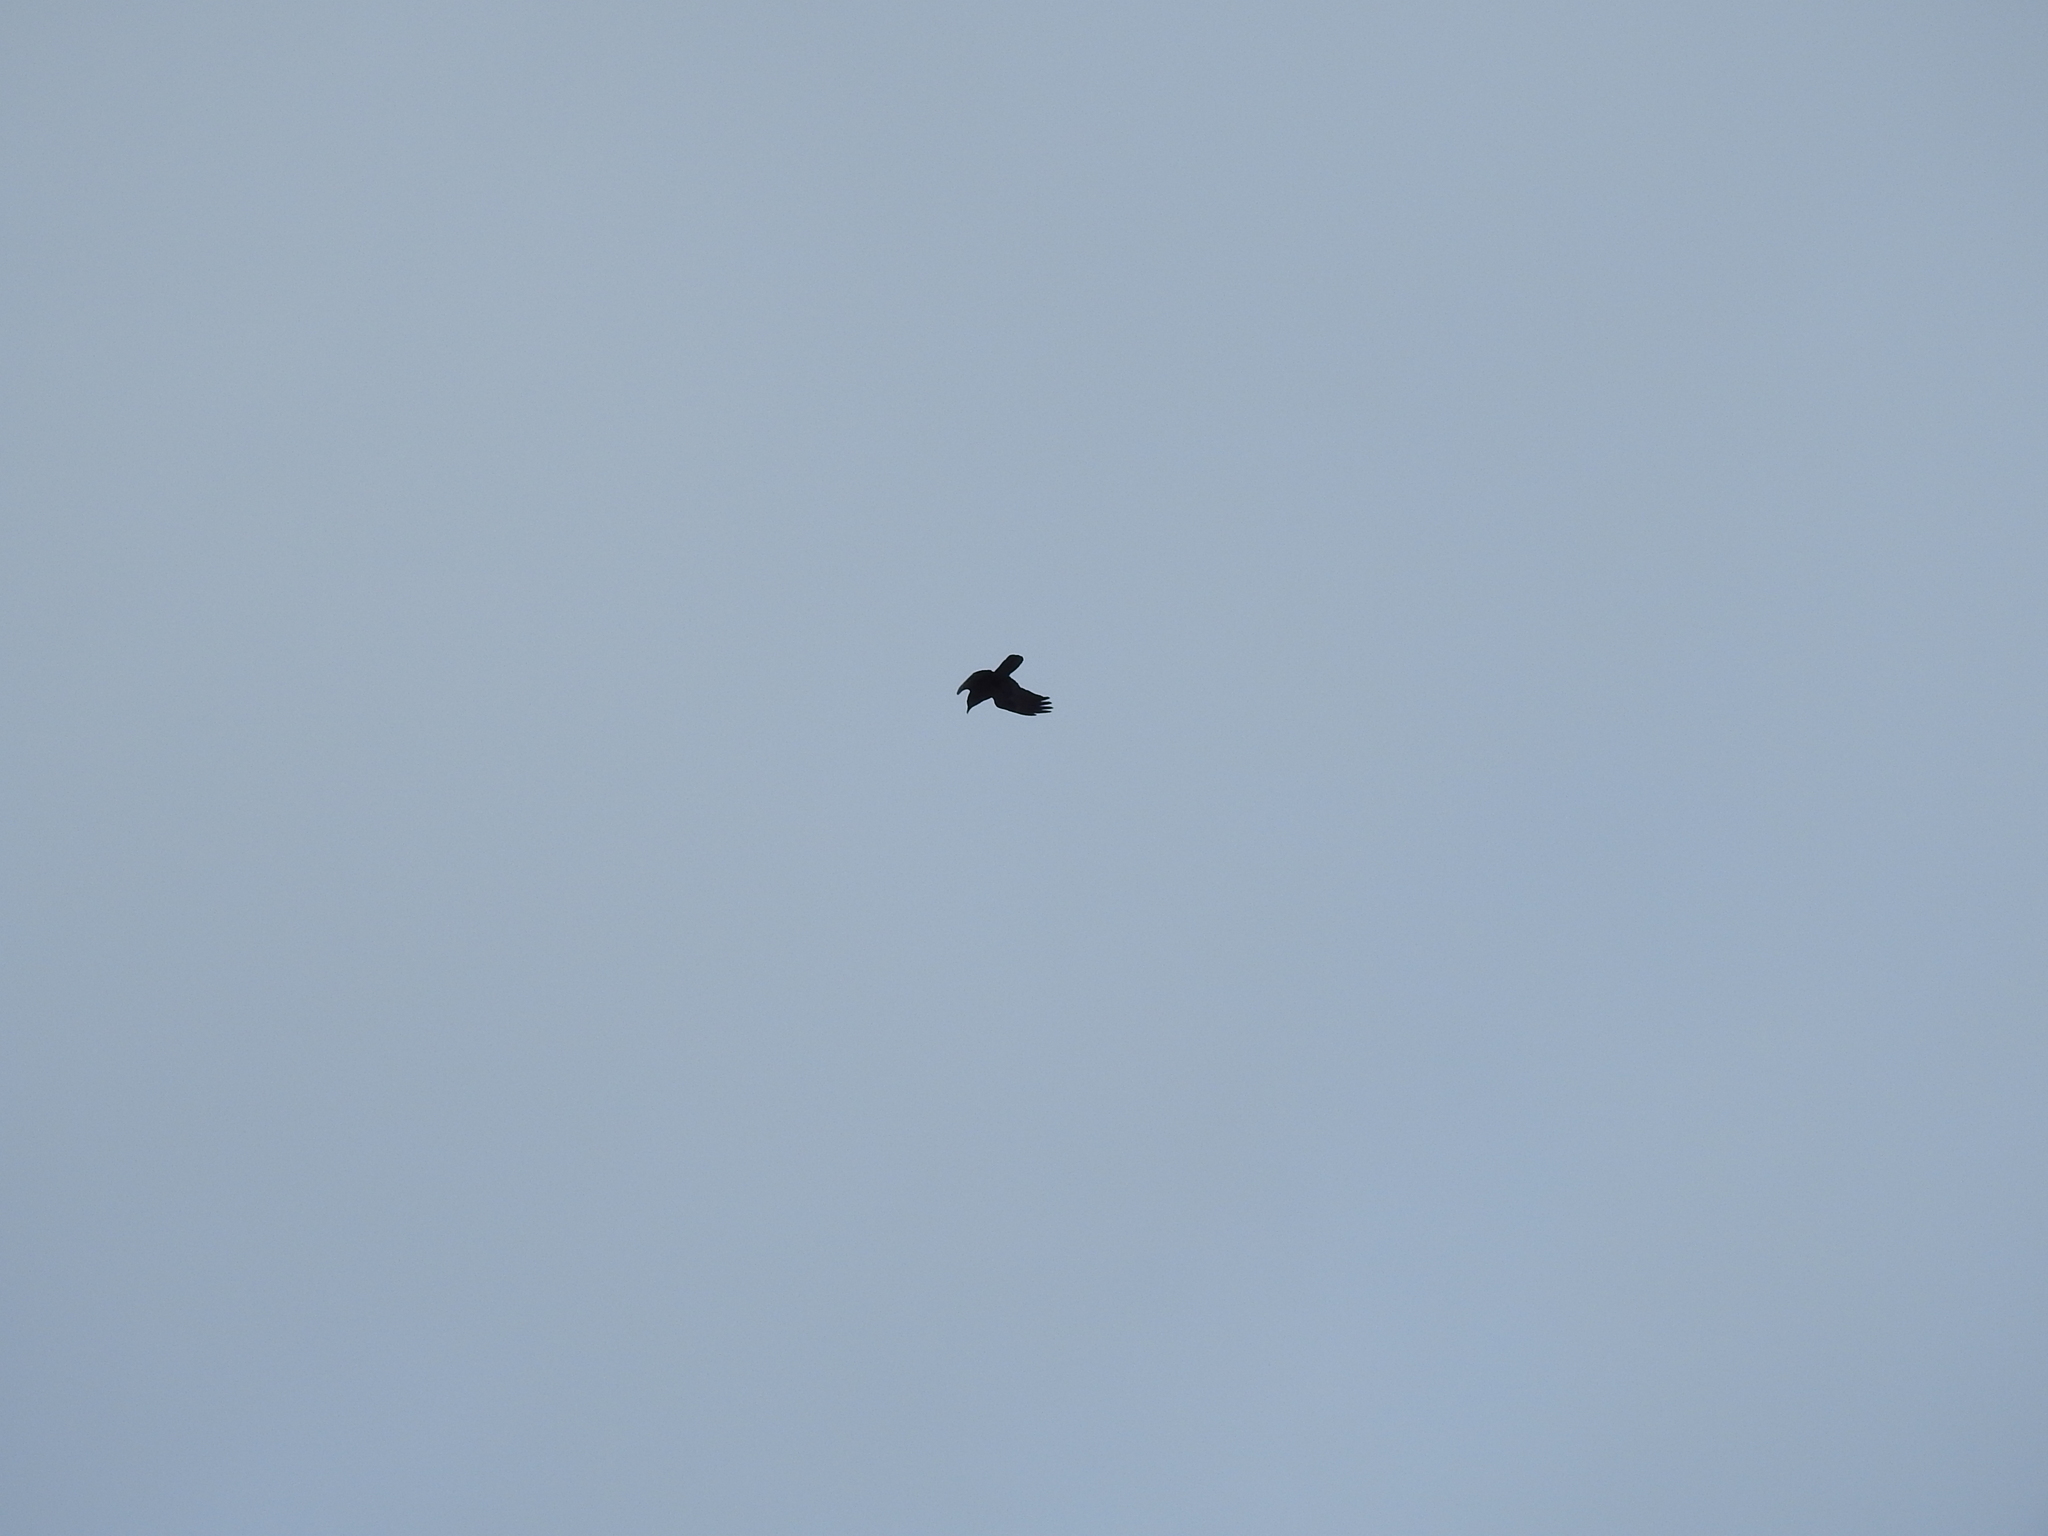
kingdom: Animalia
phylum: Chordata
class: Aves
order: Passeriformes
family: Corvidae
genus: Corvus
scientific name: Corvus corax
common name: Common raven
